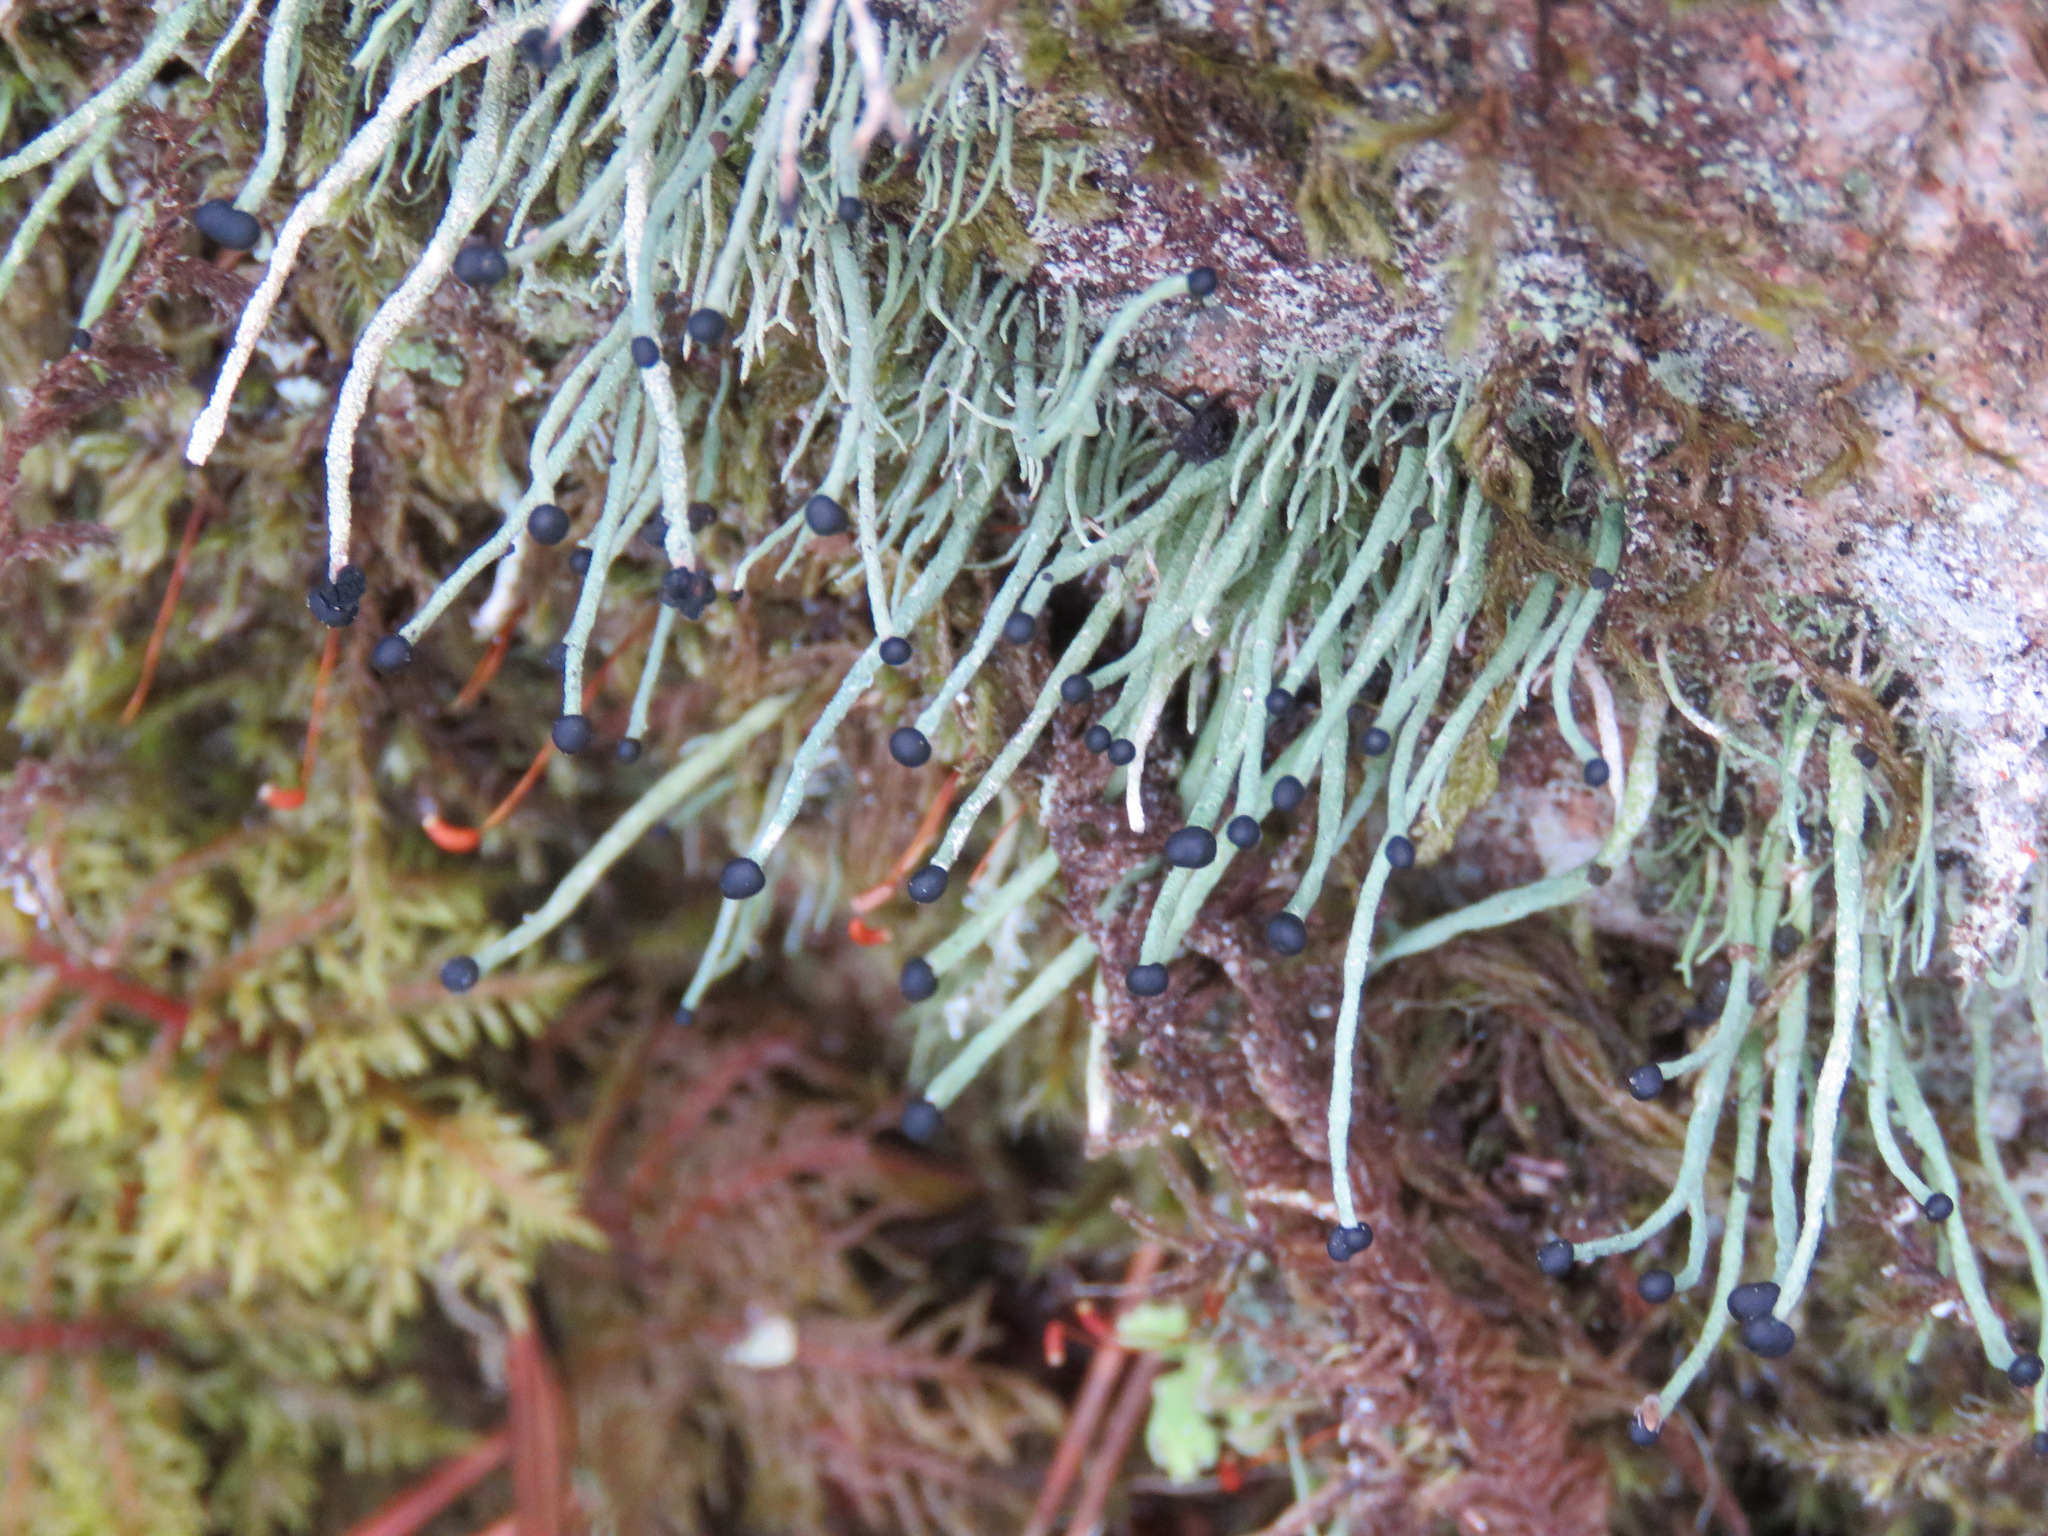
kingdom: Fungi
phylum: Ascomycota
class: Lecanoromycetes
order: Lecanorales
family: Cladoniaceae
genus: Pilophorus
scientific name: Pilophorus acicularis
